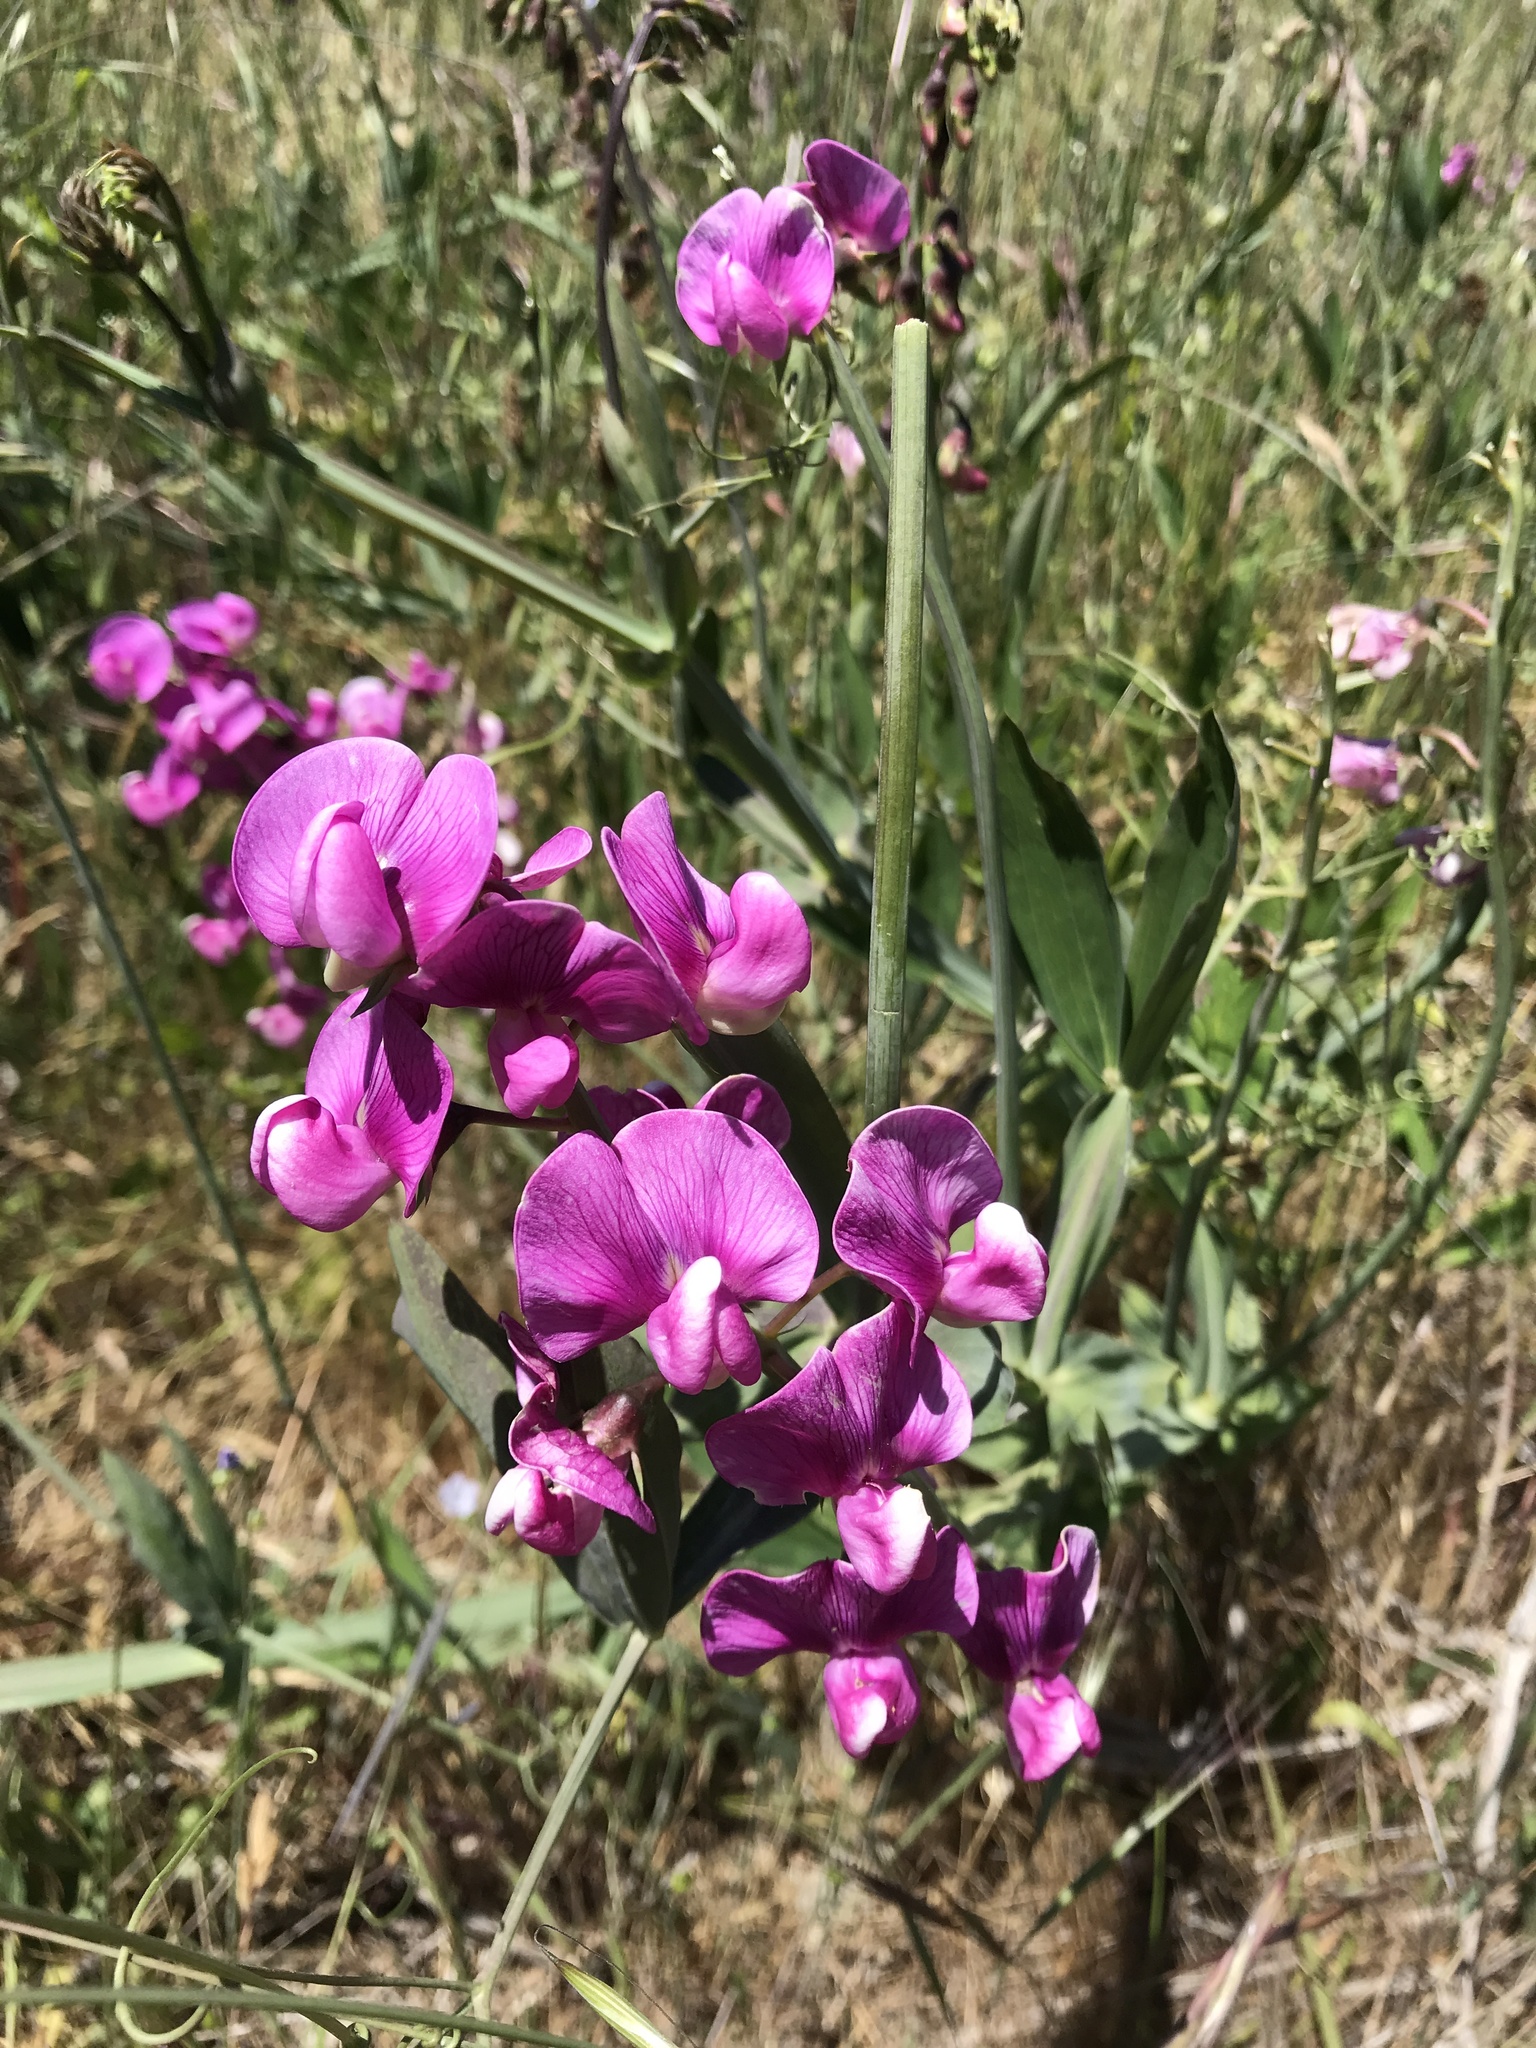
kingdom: Plantae
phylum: Tracheophyta
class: Magnoliopsida
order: Fabales
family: Fabaceae
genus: Lathyrus
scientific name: Lathyrus latifolius
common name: Perennial pea
